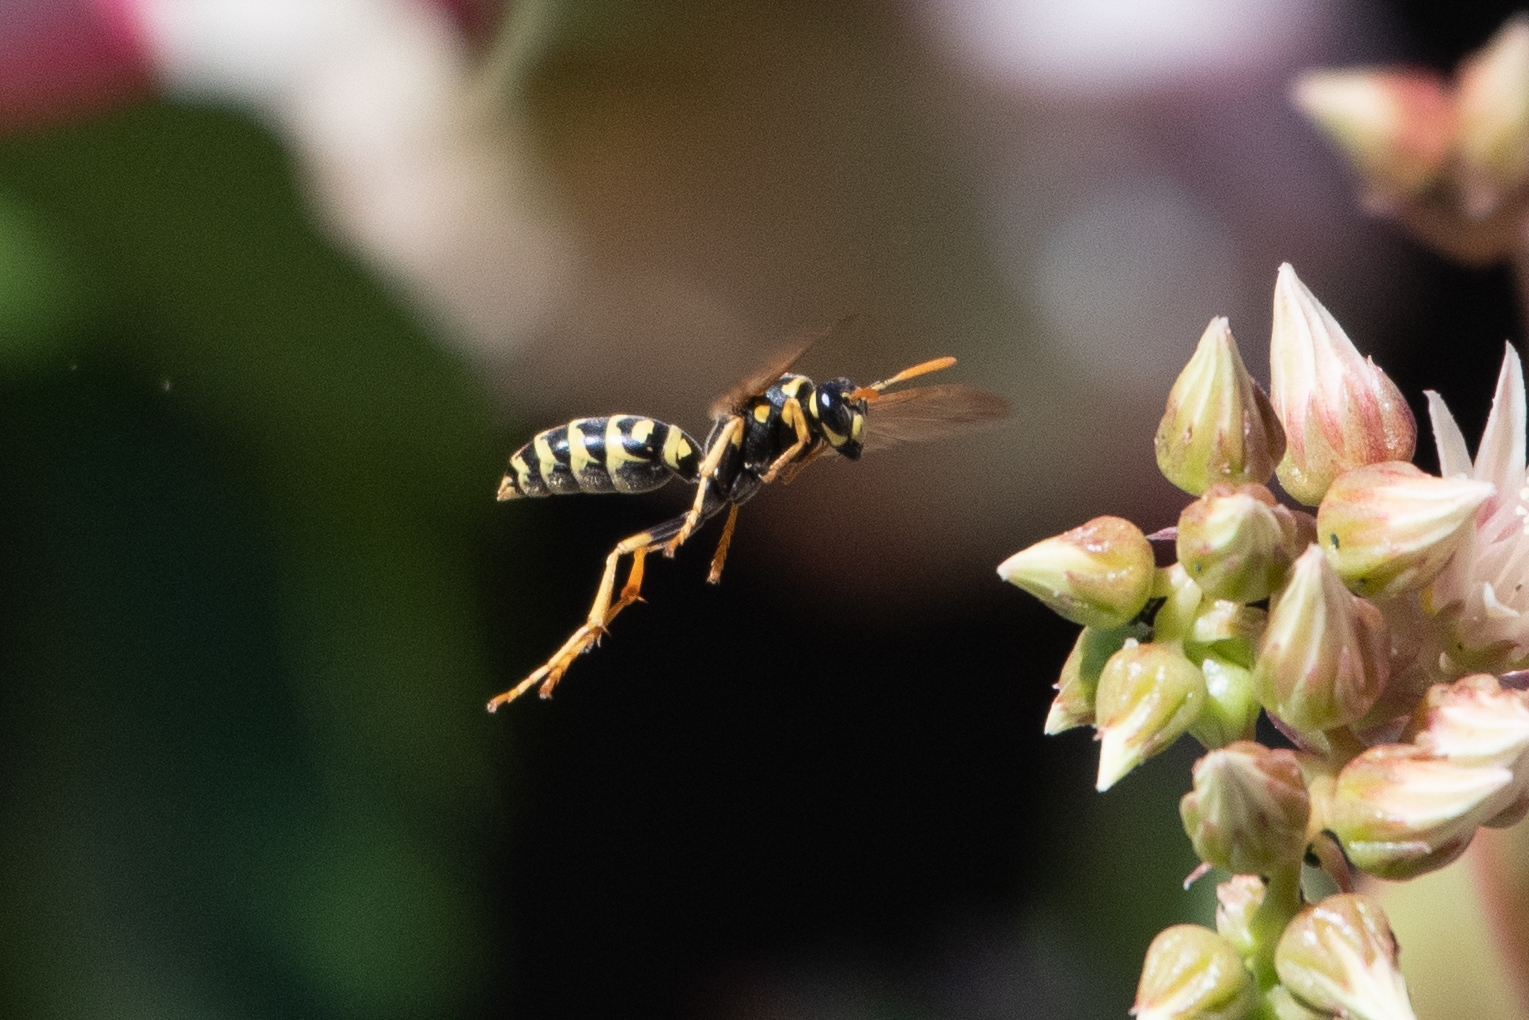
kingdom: Animalia
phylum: Arthropoda
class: Insecta
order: Hymenoptera
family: Eumenidae
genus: Polistes
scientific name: Polistes dominula
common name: Paper wasp
